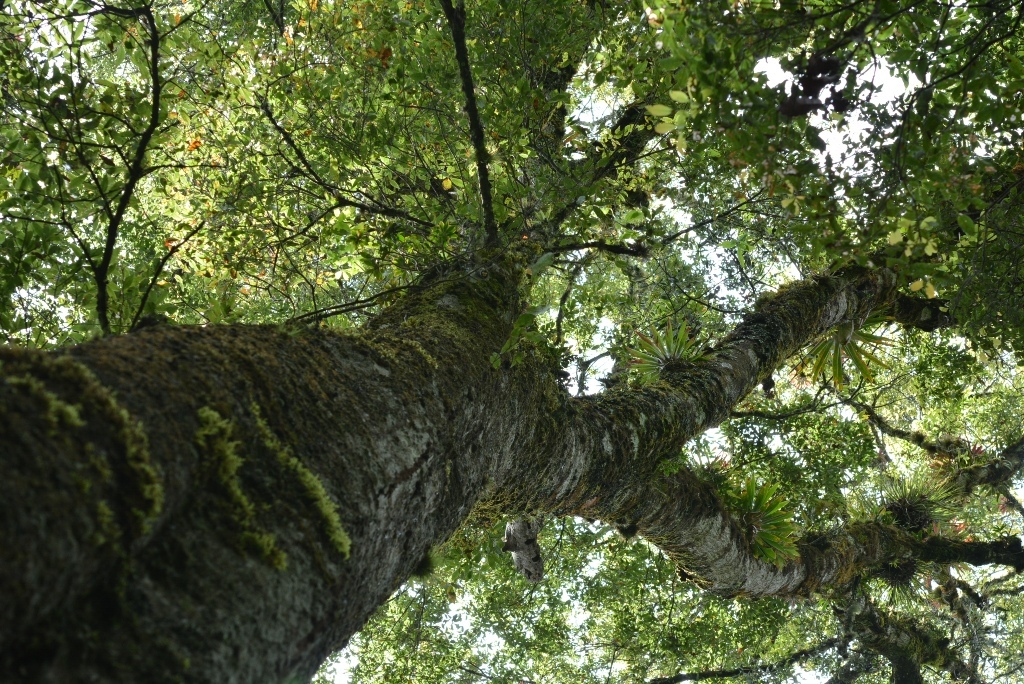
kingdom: Plantae
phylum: Tracheophyta
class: Magnoliopsida
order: Fagales
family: Fagaceae
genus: Quercus
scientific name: Quercus laurina
